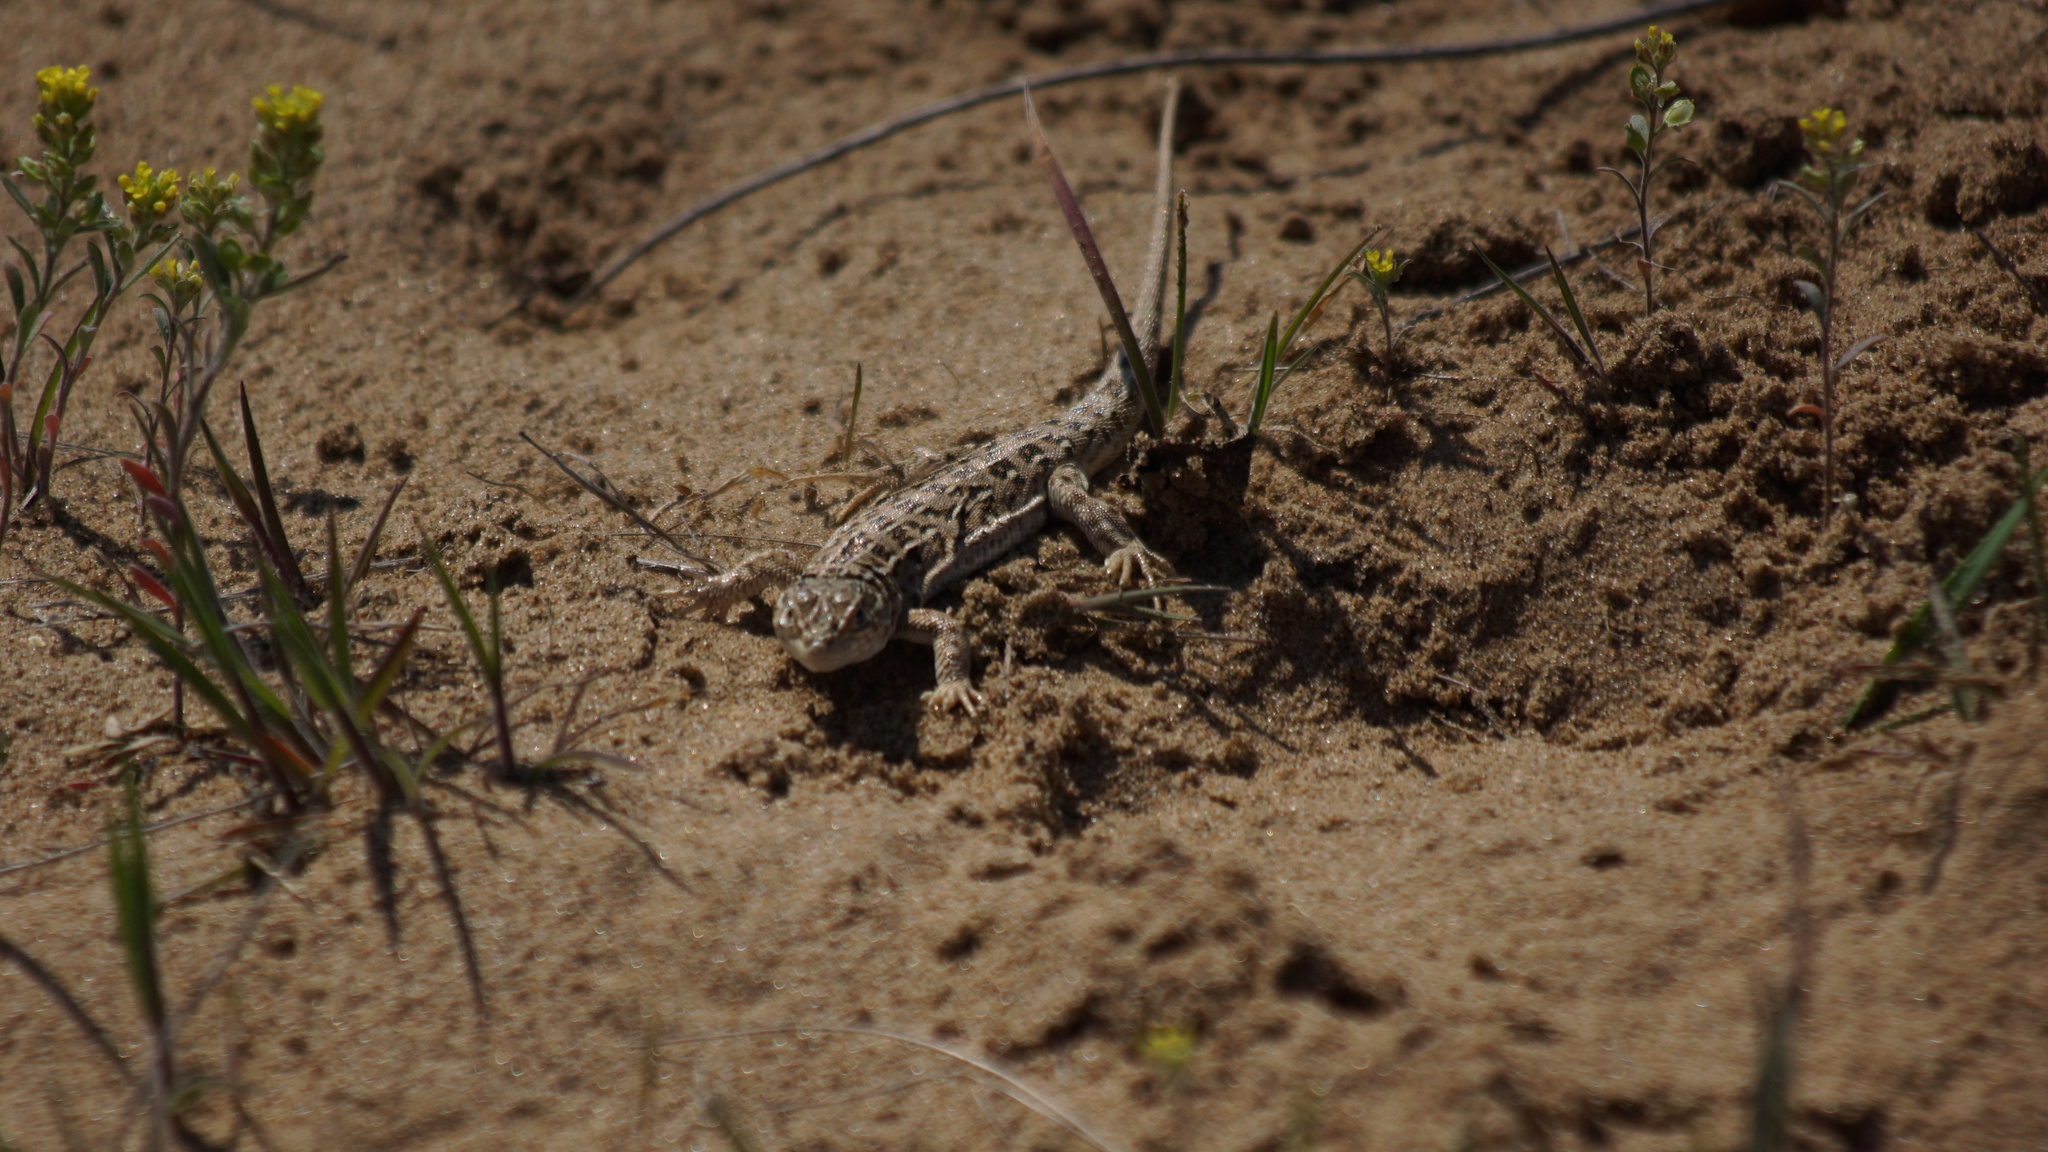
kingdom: Animalia
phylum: Chordata
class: Squamata
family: Lacertidae
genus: Eremias
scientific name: Eremias arguta
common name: Racerunner
